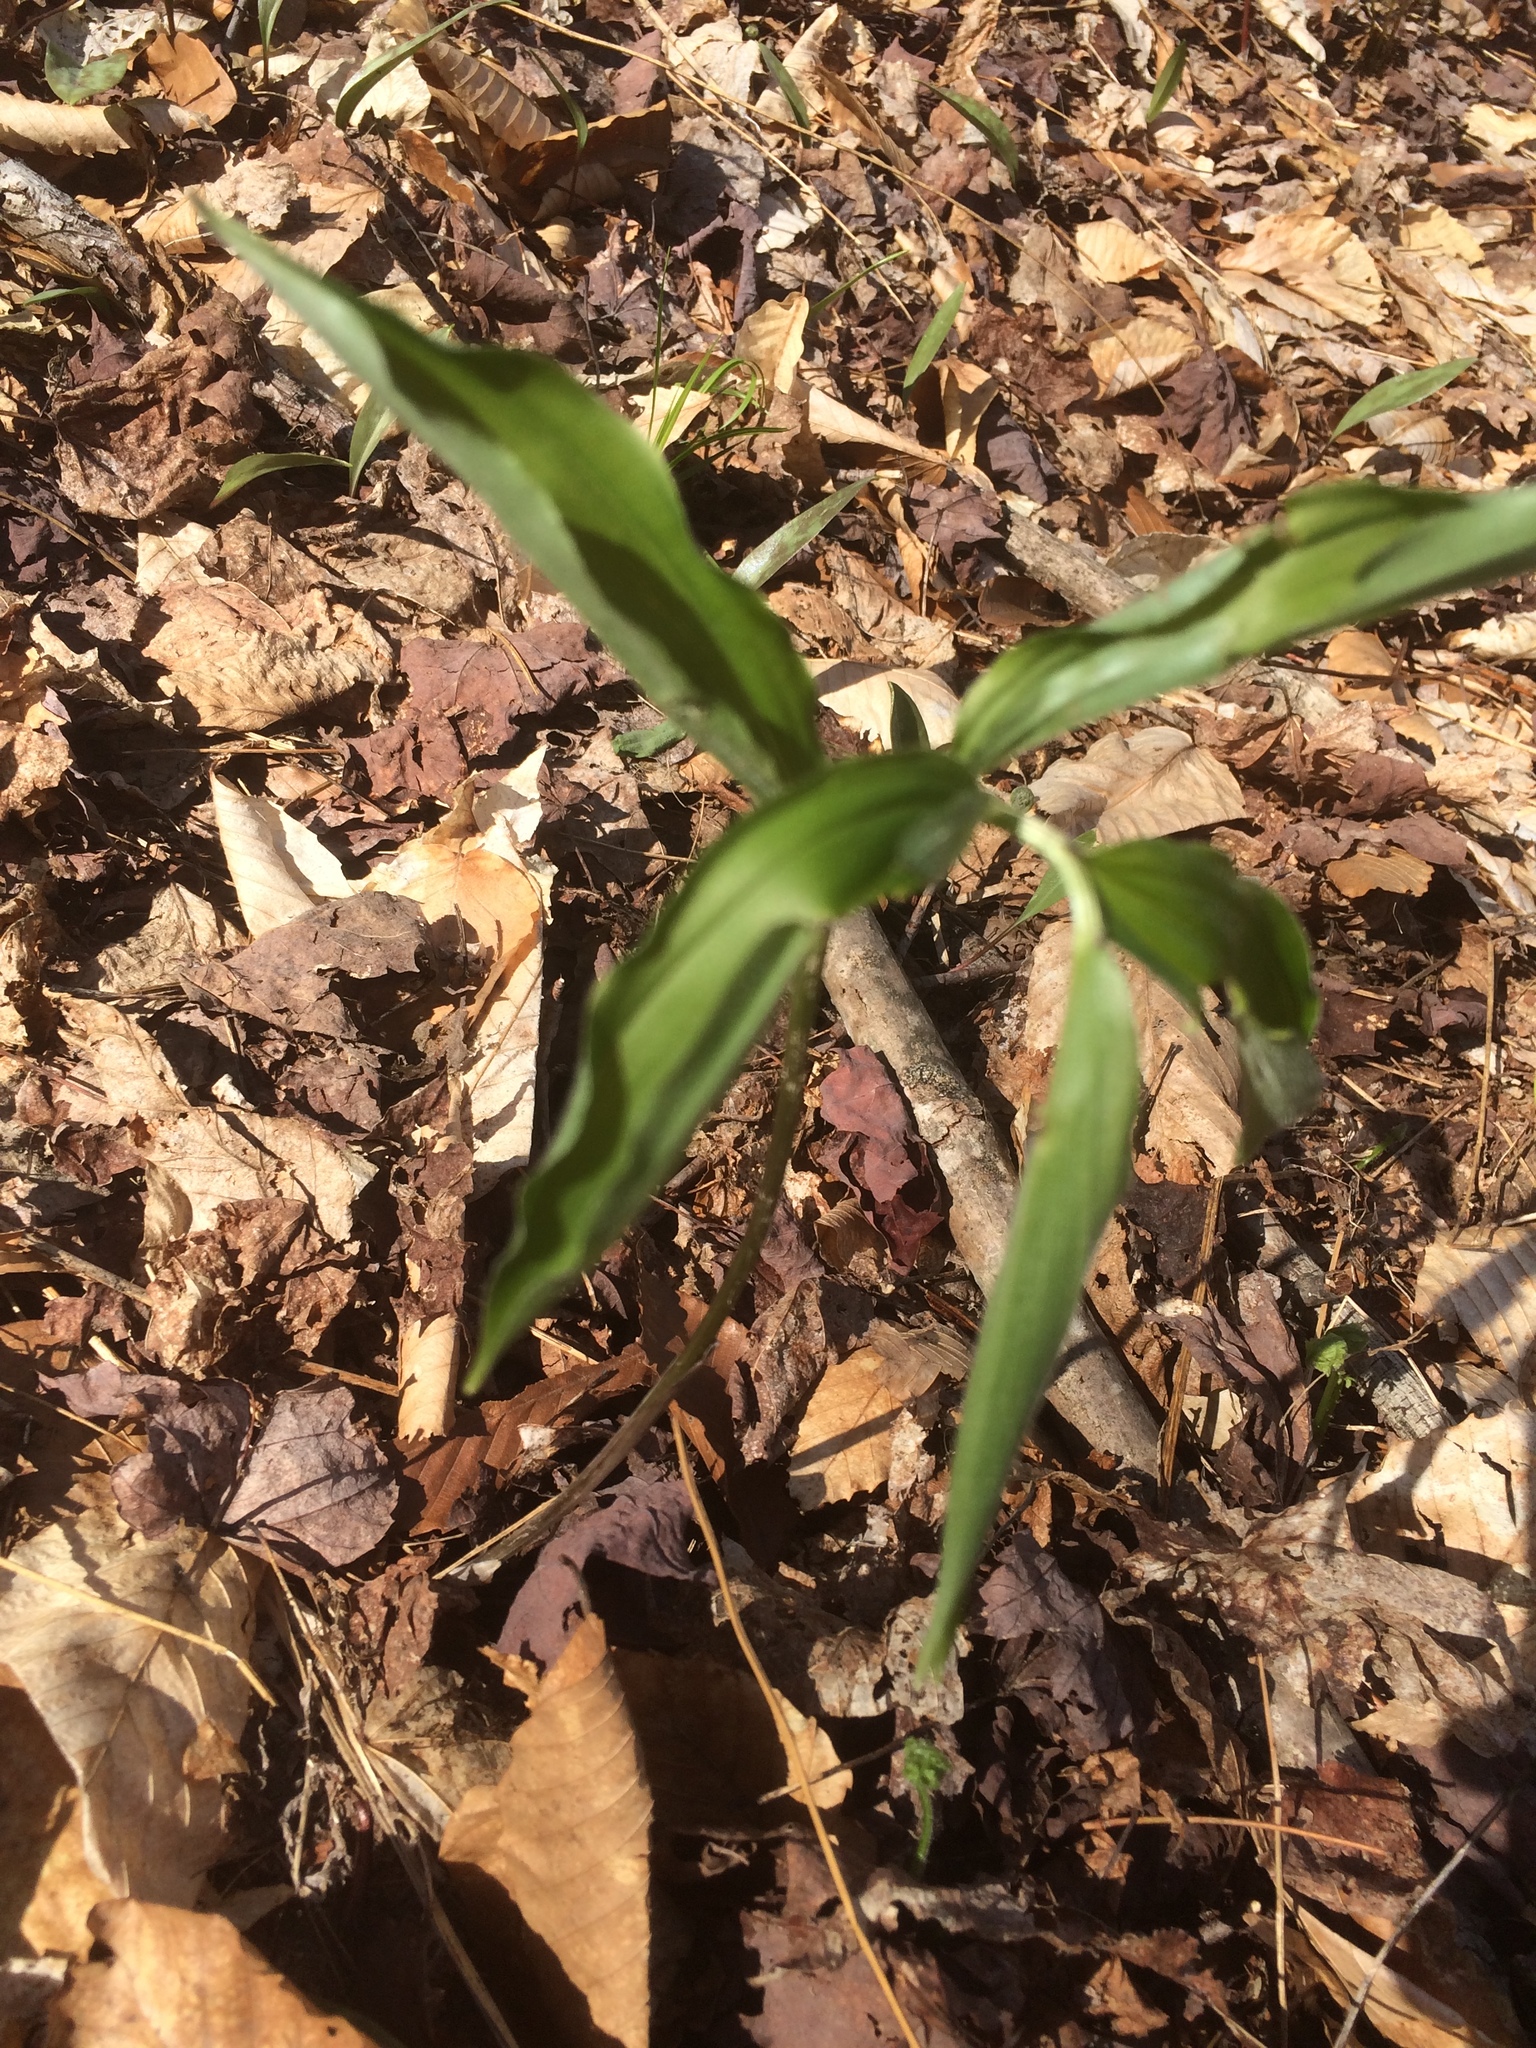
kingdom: Plantae
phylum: Tracheophyta
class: Liliopsida
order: Asparagales
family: Asparagaceae
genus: Maianthemum
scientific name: Maianthemum racemosum
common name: False spikenard
